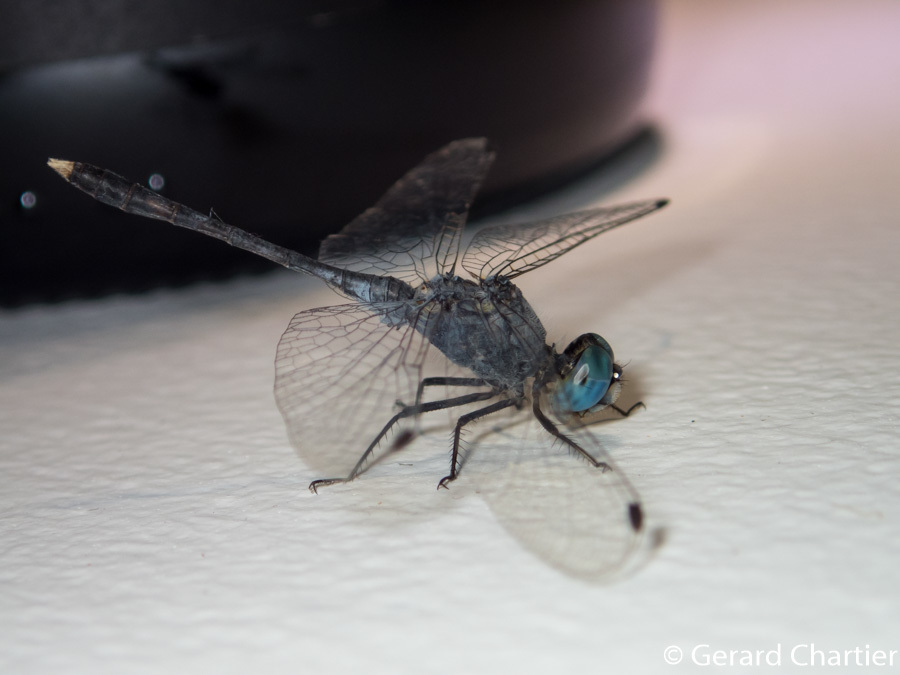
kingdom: Animalia
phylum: Arthropoda
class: Insecta
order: Odonata
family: Libellulidae
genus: Diplacodes
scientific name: Diplacodes trivialis
